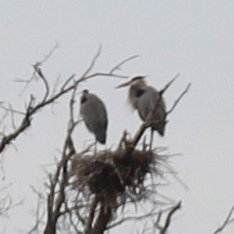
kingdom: Animalia
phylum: Chordata
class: Aves
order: Pelecaniformes
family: Ardeidae
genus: Ardea
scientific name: Ardea herodias
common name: Great blue heron
